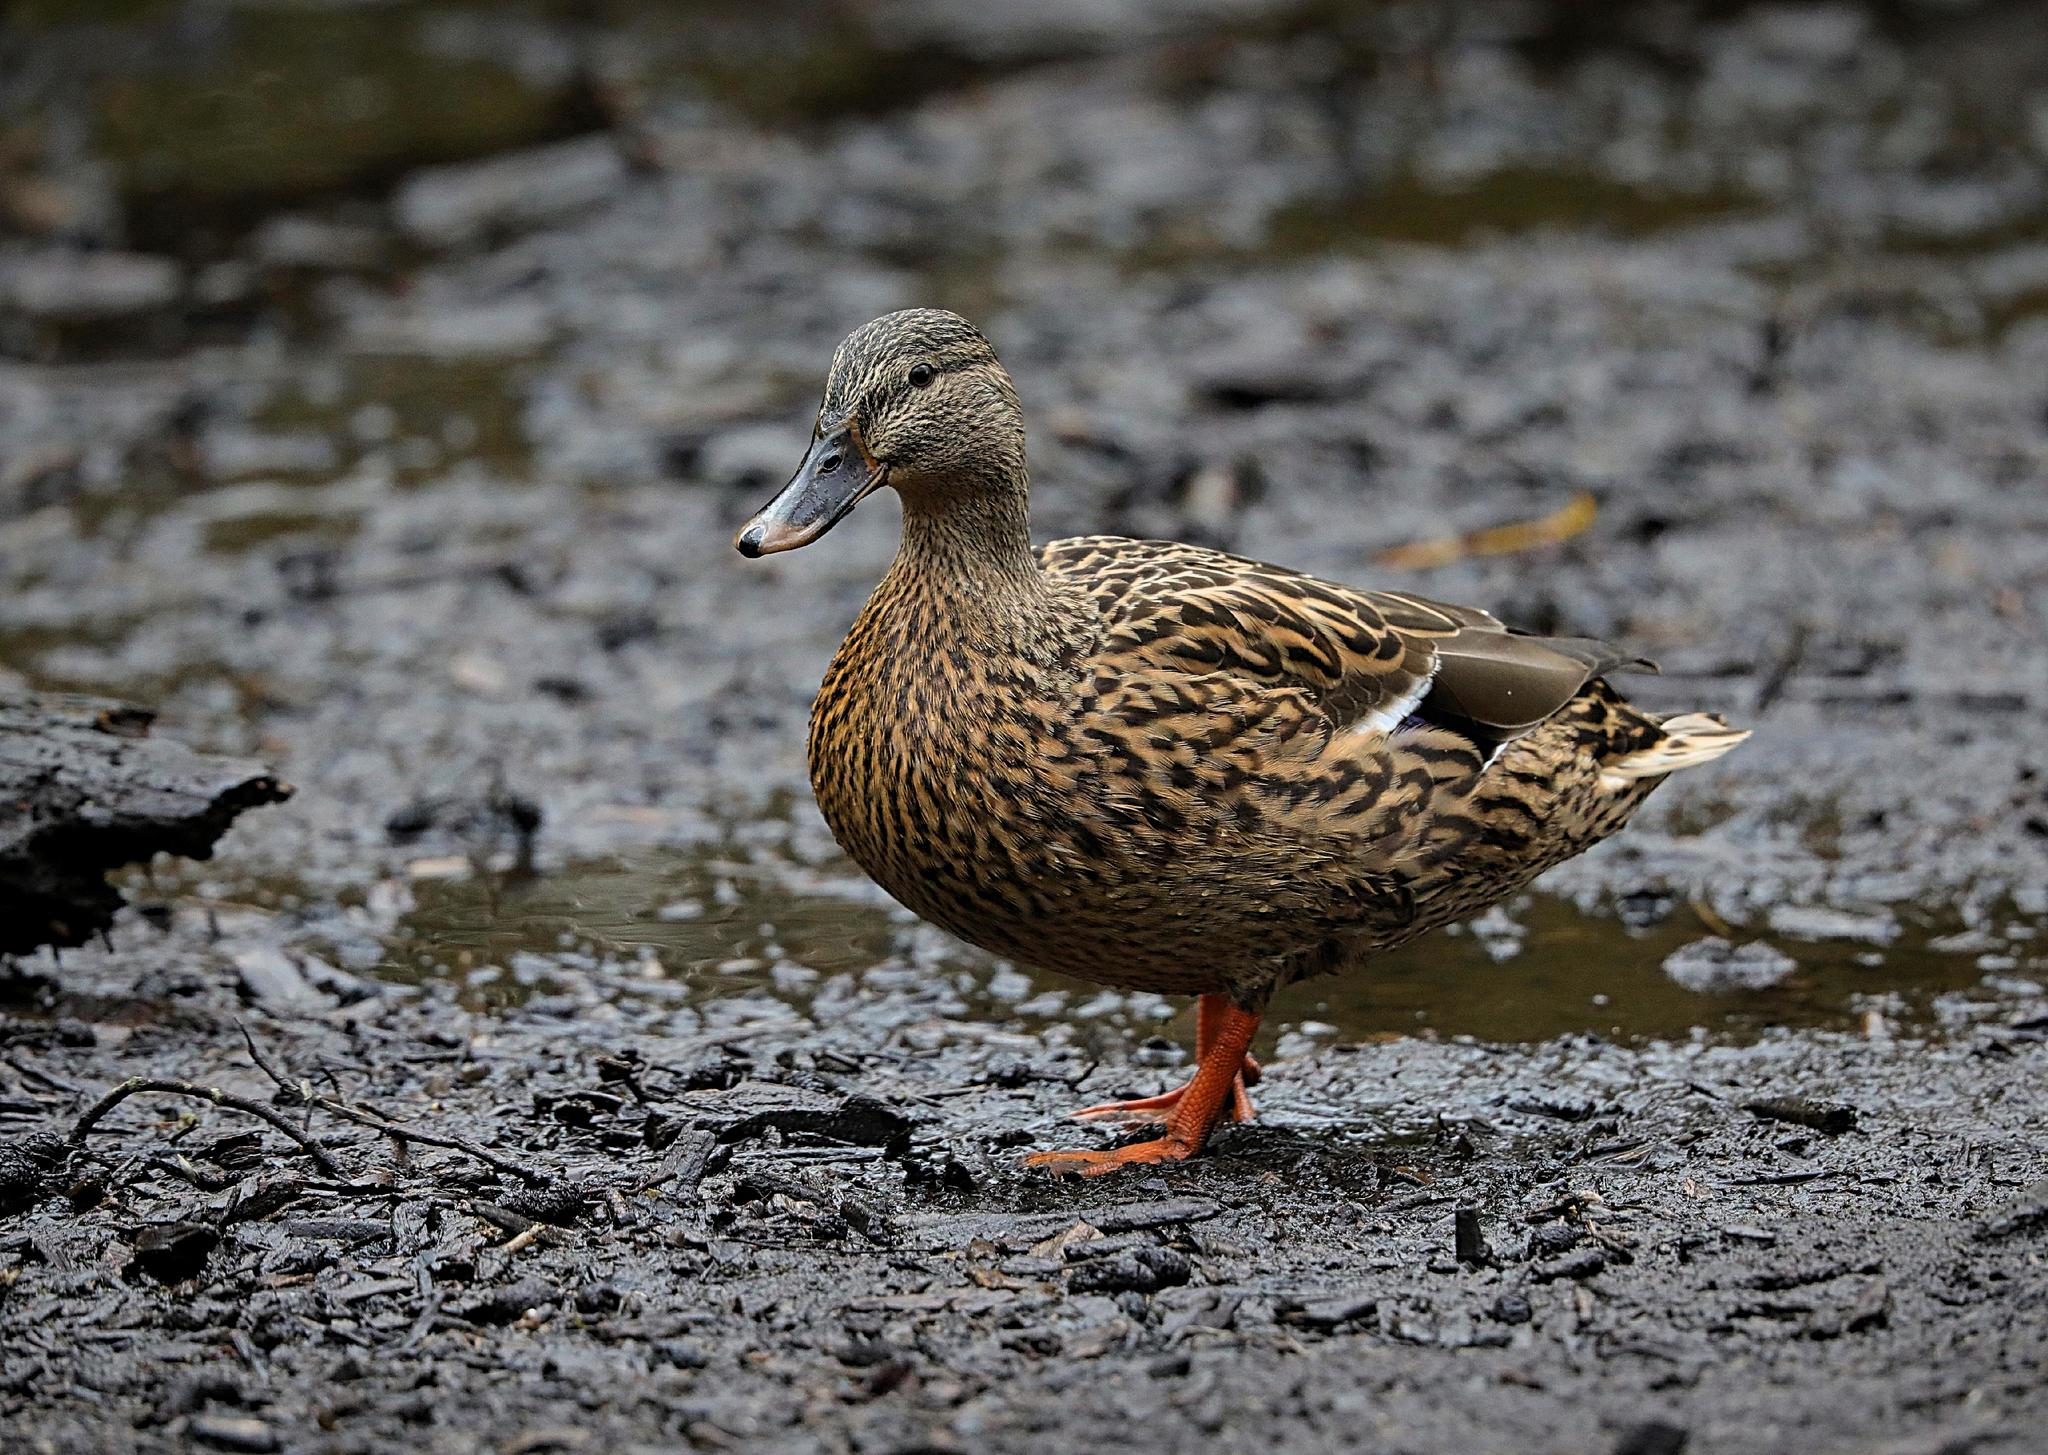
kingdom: Animalia
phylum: Chordata
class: Aves
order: Anseriformes
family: Anatidae
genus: Anas
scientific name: Anas platyrhynchos
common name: Mallard
